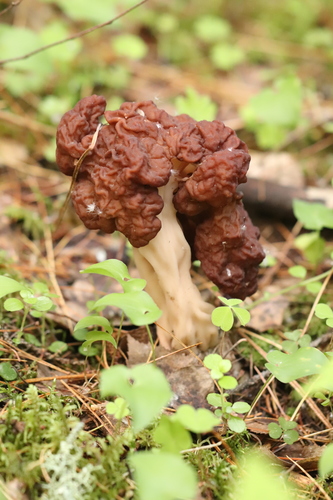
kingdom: Fungi
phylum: Ascomycota
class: Pezizomycetes
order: Pezizales
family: Discinaceae
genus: Gyromitra
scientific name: Gyromitra esculenta
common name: False morel
